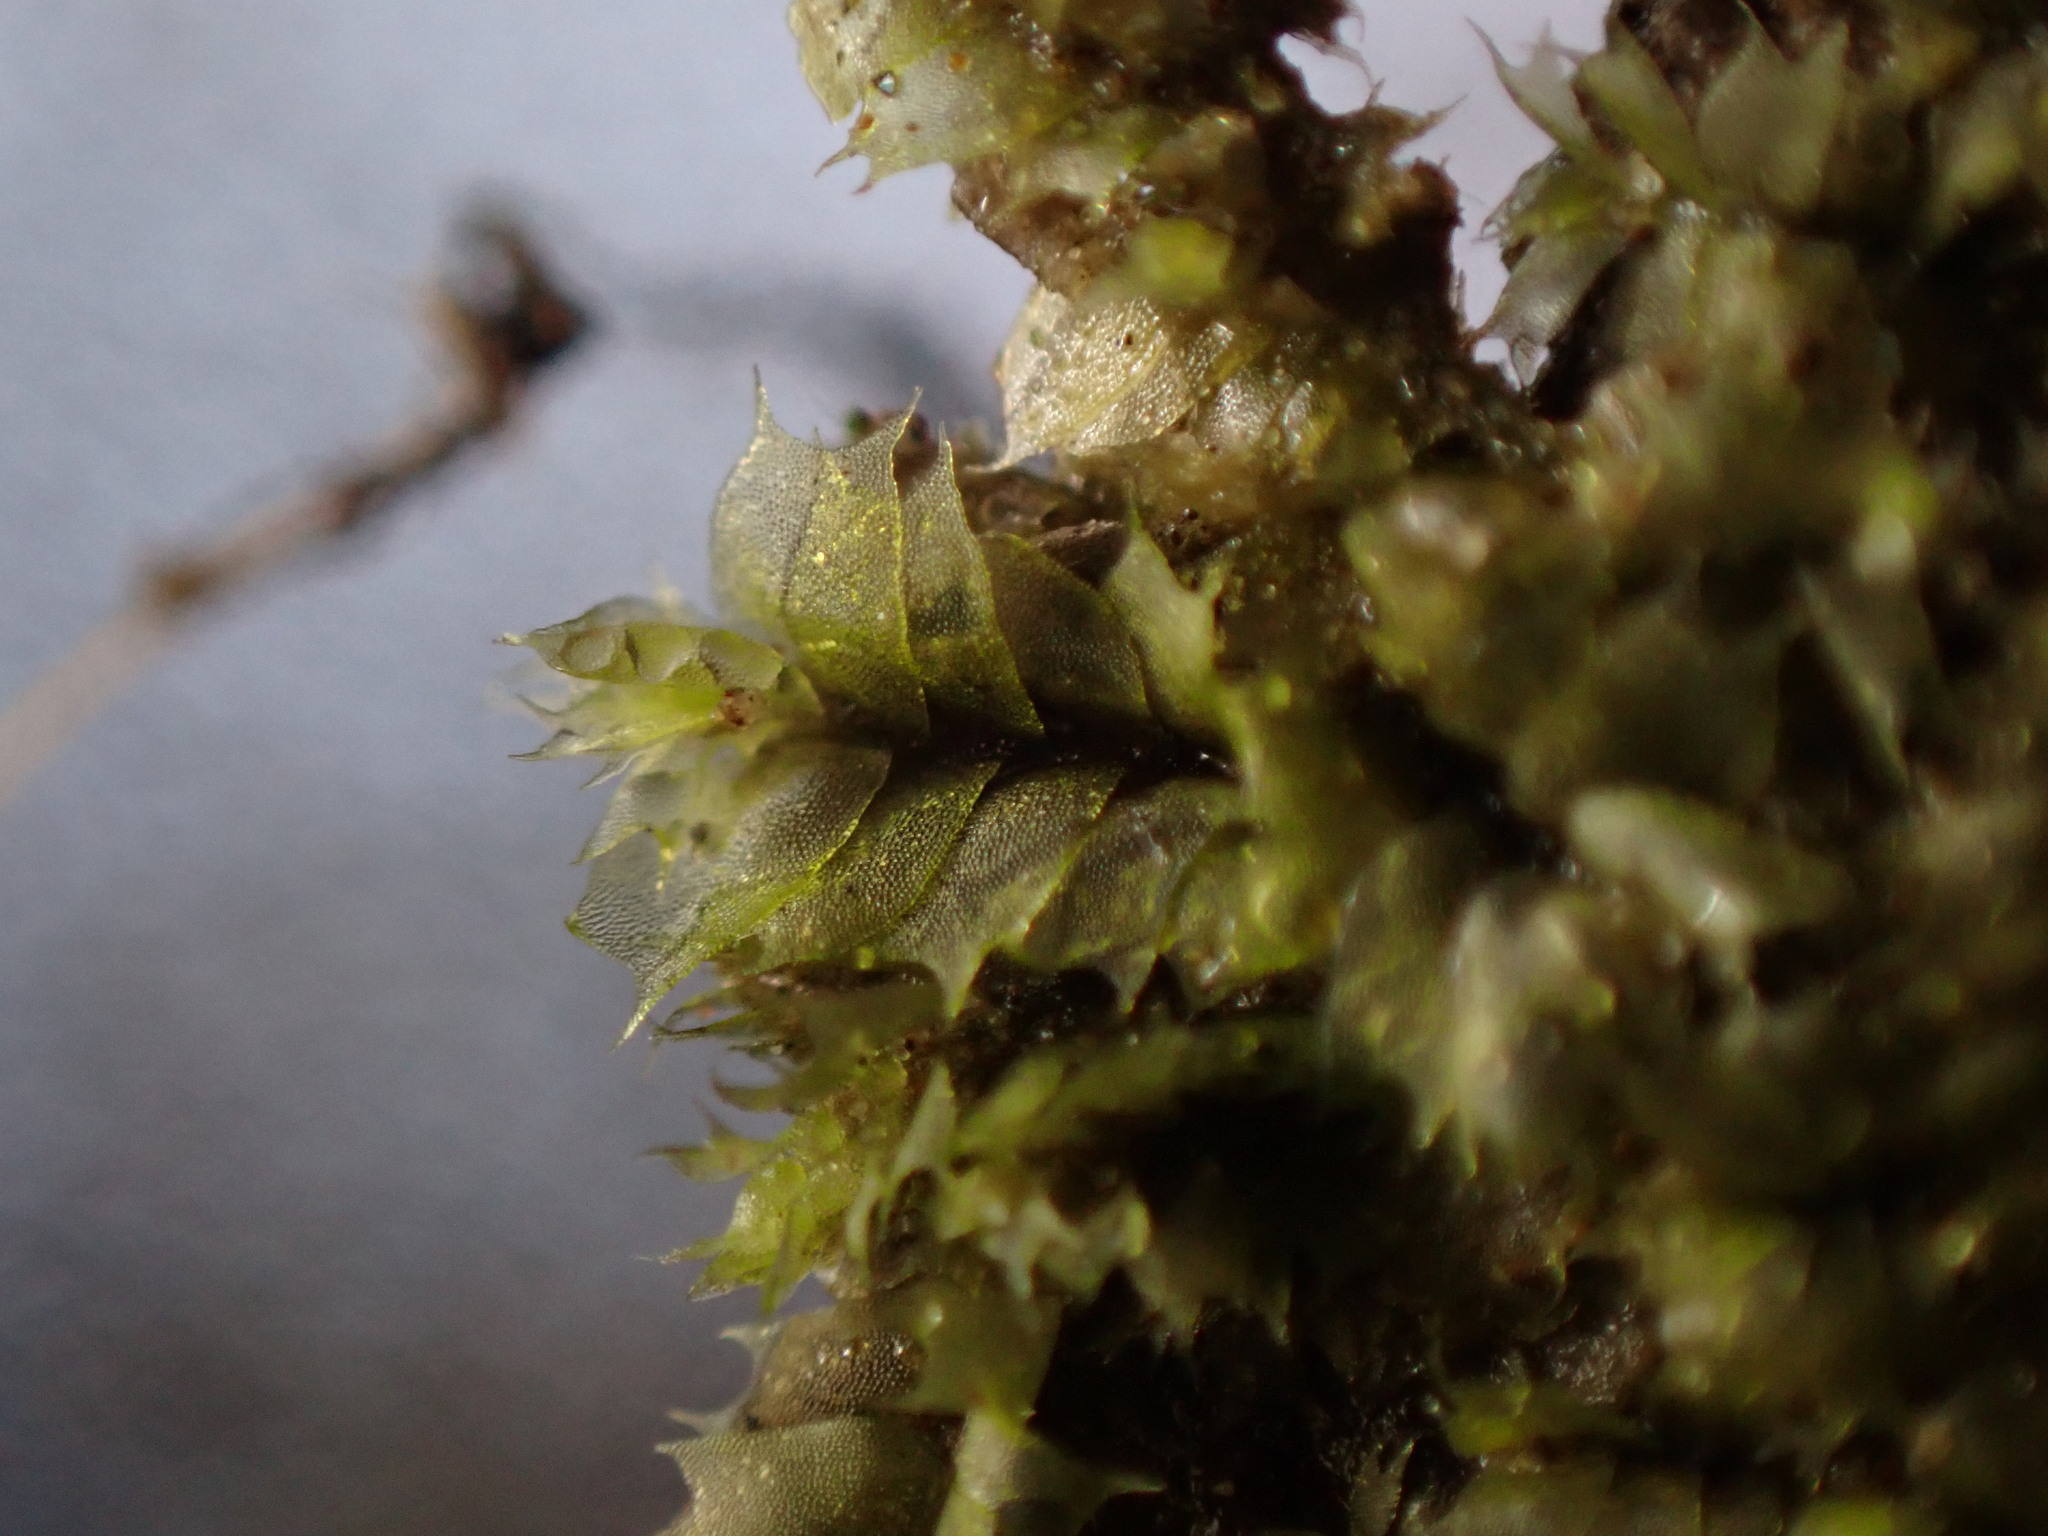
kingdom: Plantae
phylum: Marchantiophyta
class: Jungermanniopsida
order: Jungermanniales
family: Lophocoleaceae
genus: Lophocolea
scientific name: Lophocolea bidentata
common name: Bifid crestwort
